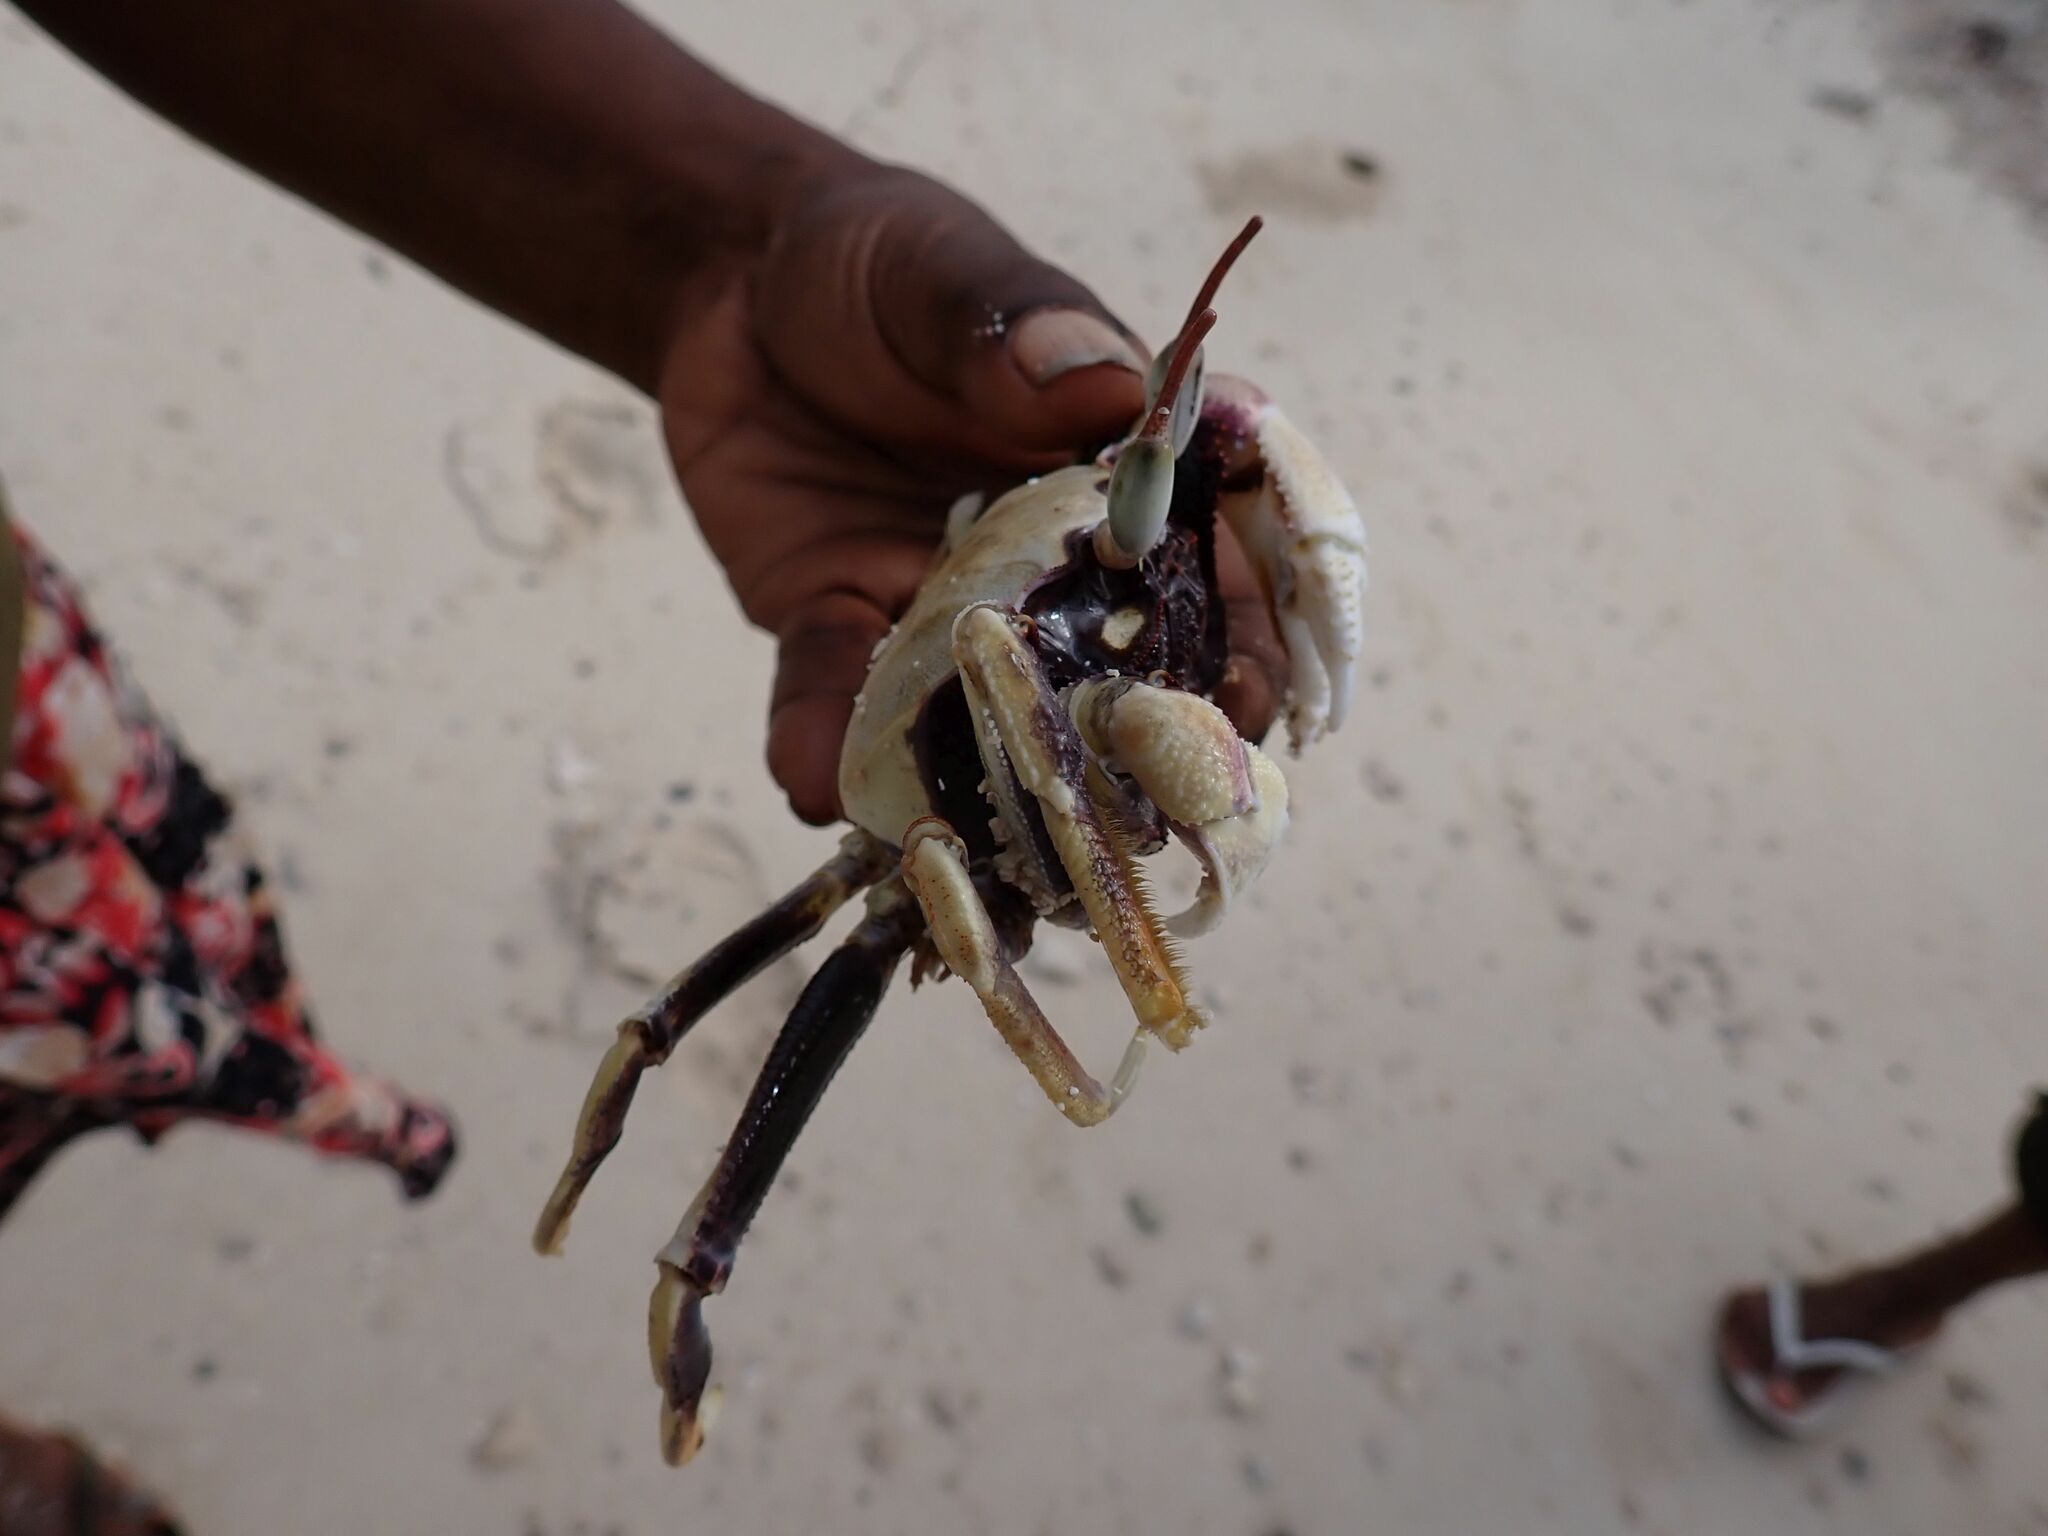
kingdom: Animalia
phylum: Arthropoda
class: Malacostraca
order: Decapoda
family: Ocypodidae
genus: Ocypode
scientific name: Ocypode ceratophthalmus
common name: Indo-pacific ghost crab
